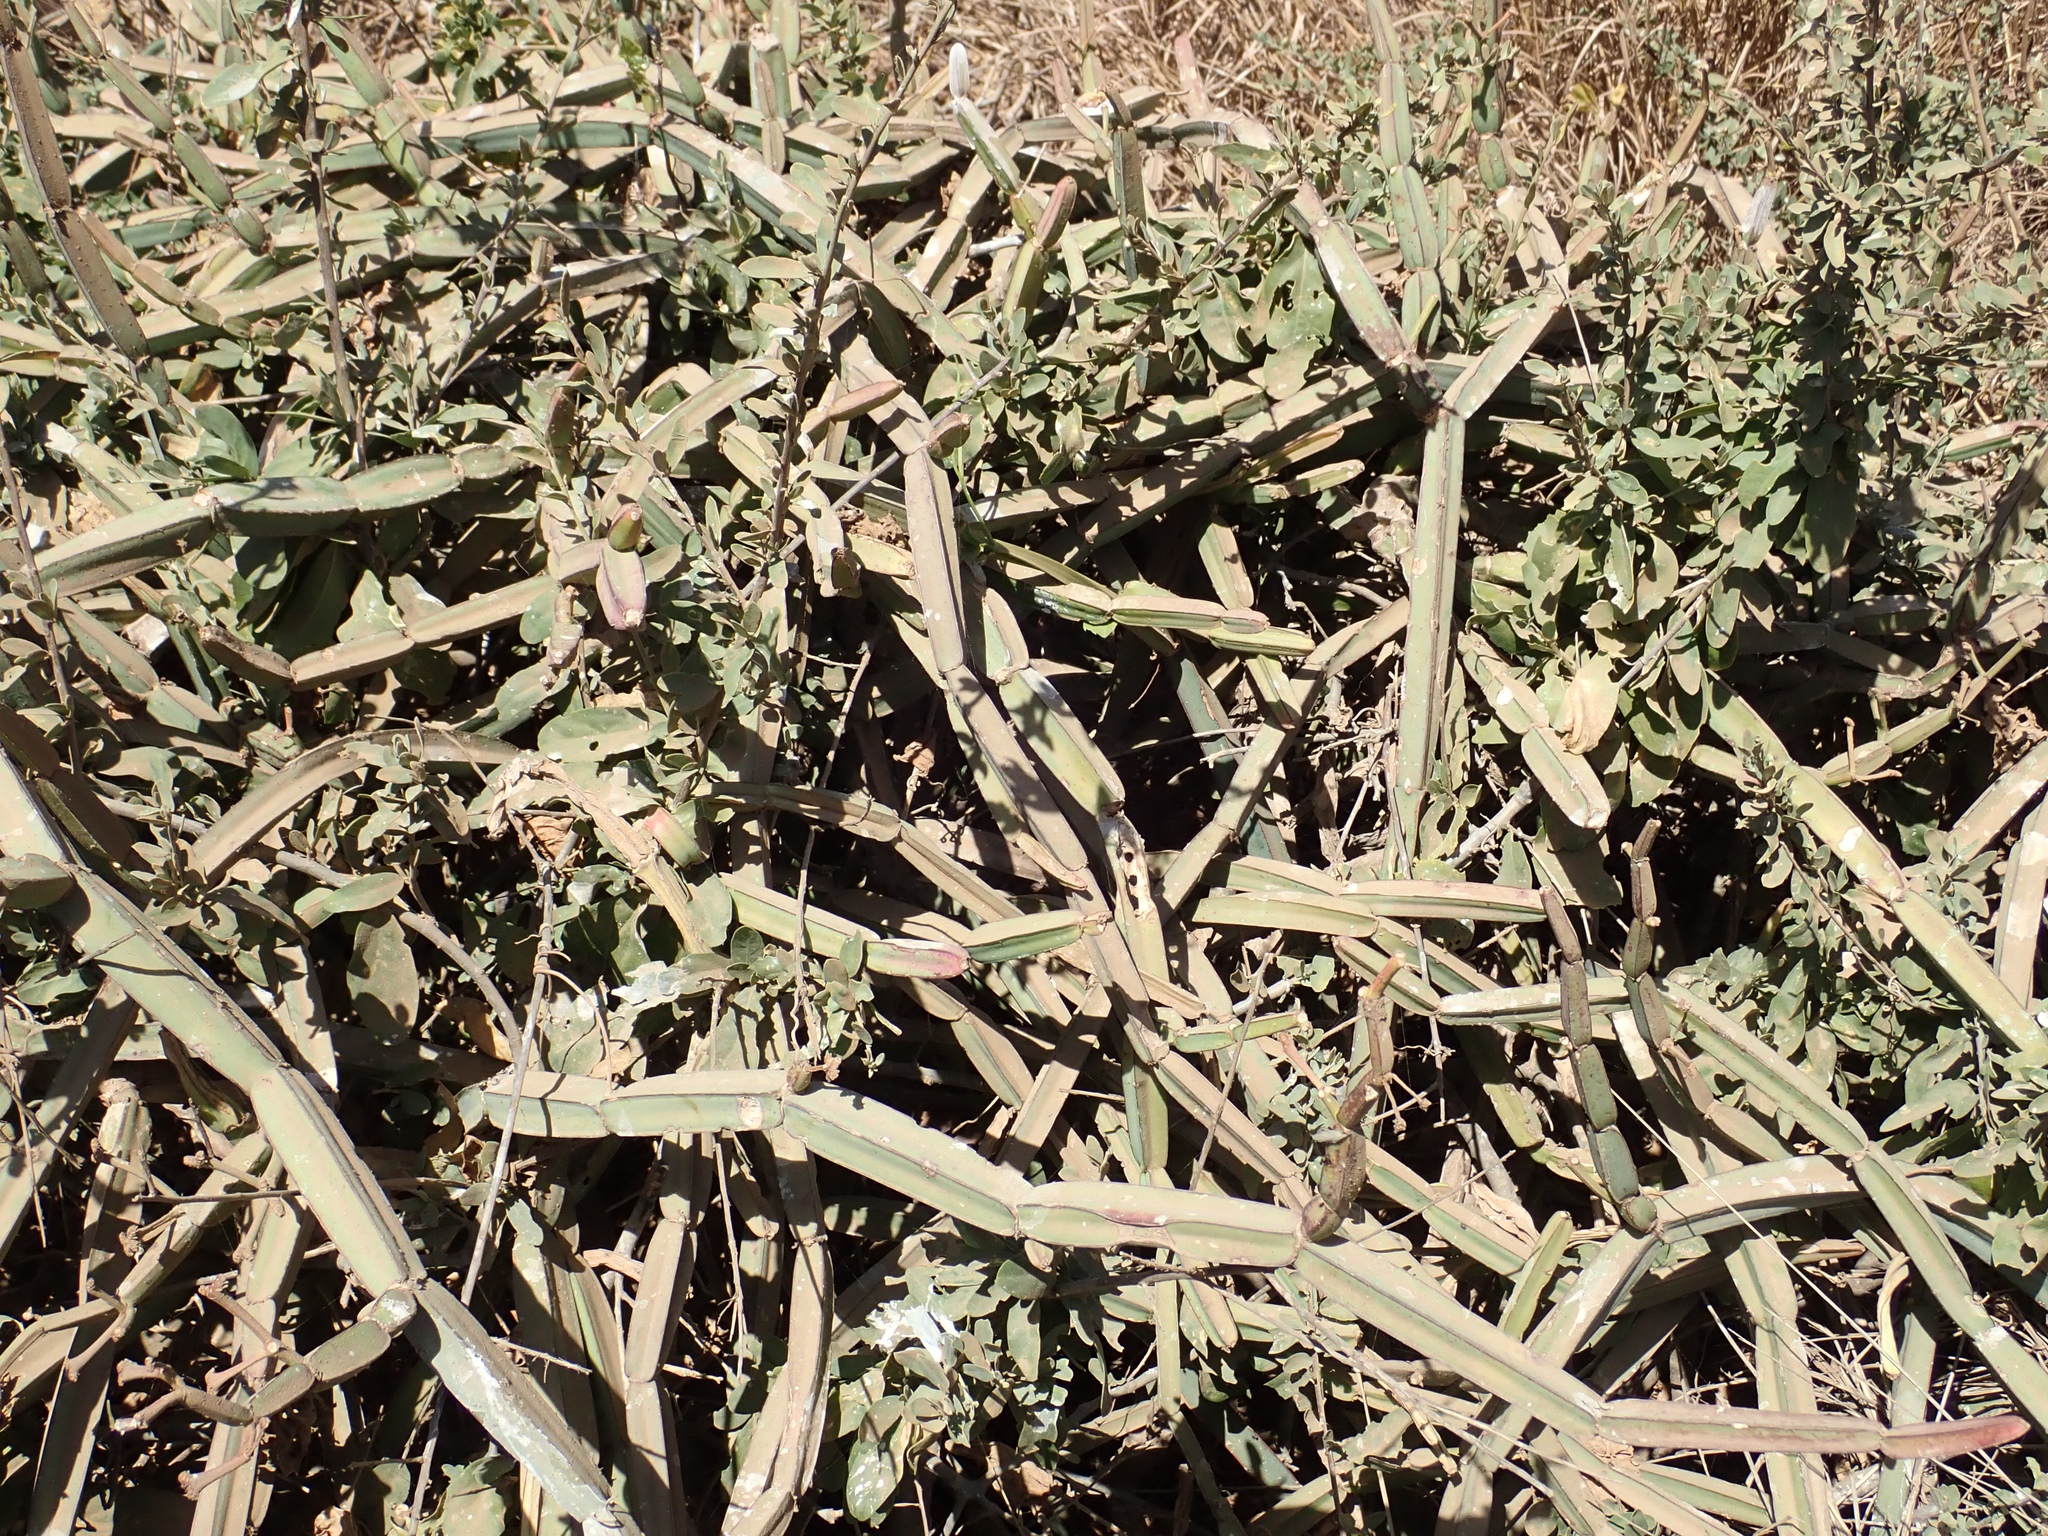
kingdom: Plantae
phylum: Tracheophyta
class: Magnoliopsida
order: Vitales
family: Vitaceae
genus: Cissus
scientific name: Cissus quadrangularis
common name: Veldt-grape
